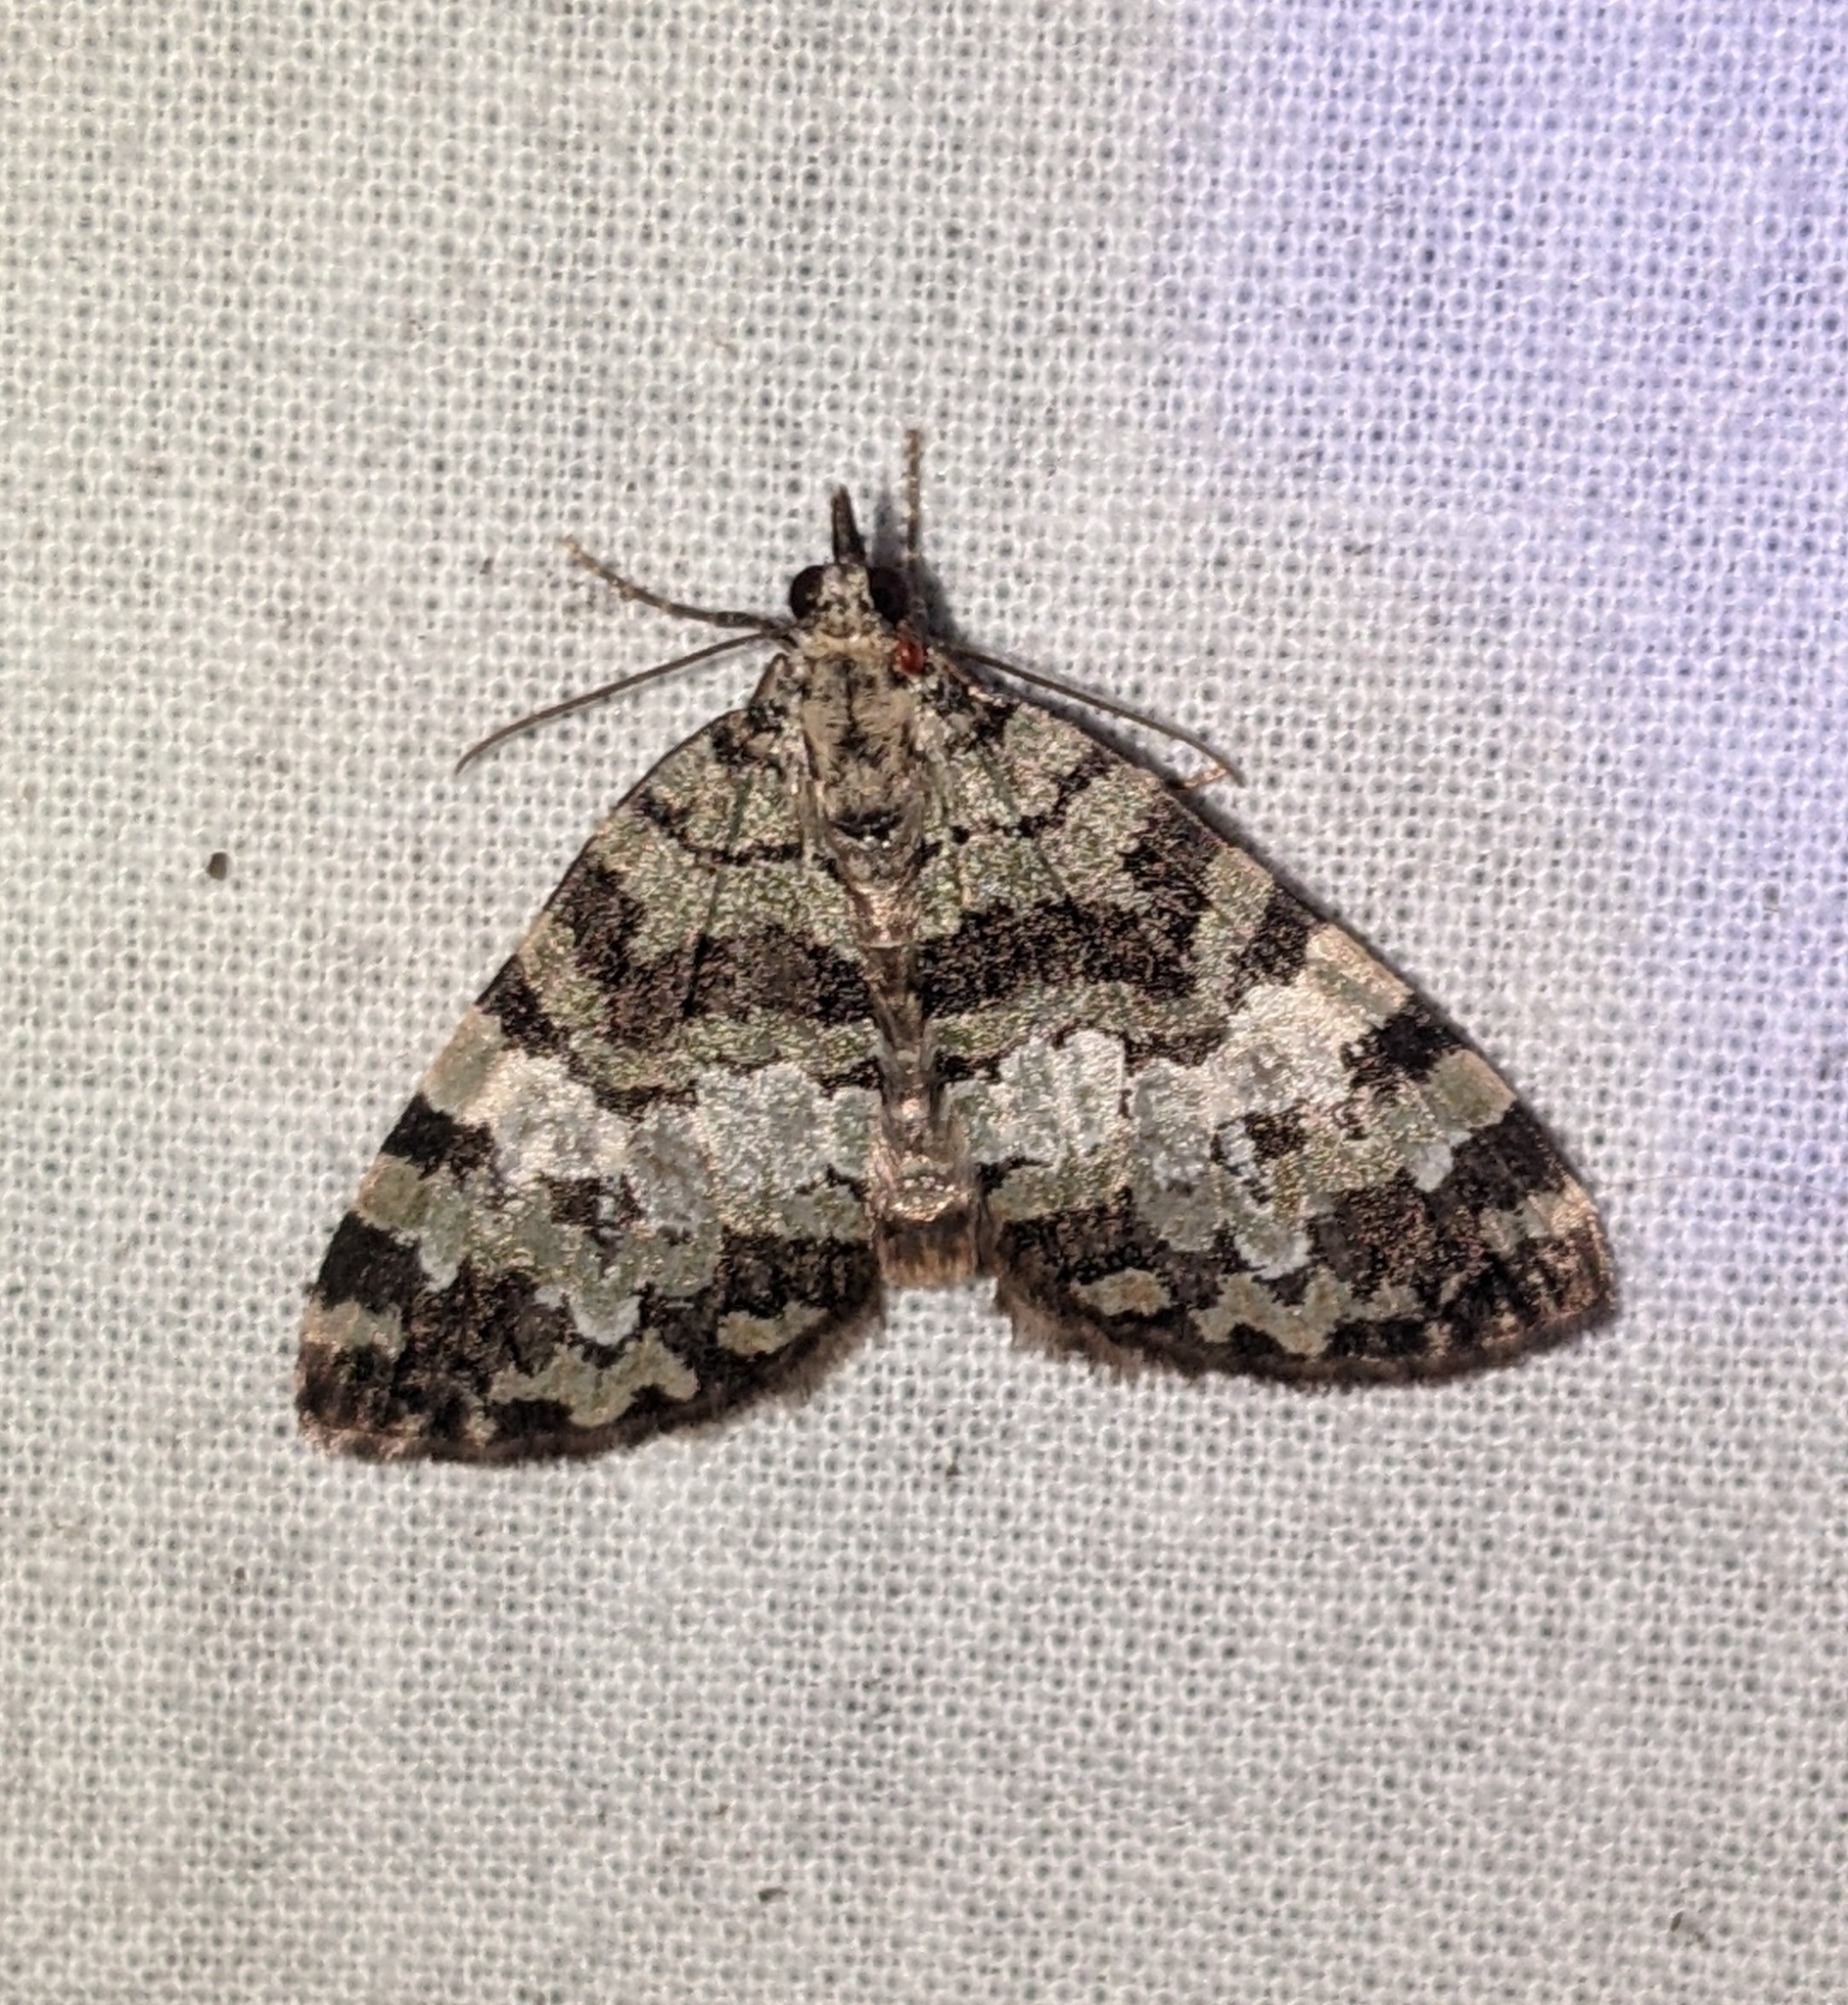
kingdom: Animalia
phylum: Arthropoda
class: Insecta
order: Lepidoptera
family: Geometridae
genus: Hydriomena
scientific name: Hydriomena speciosata
